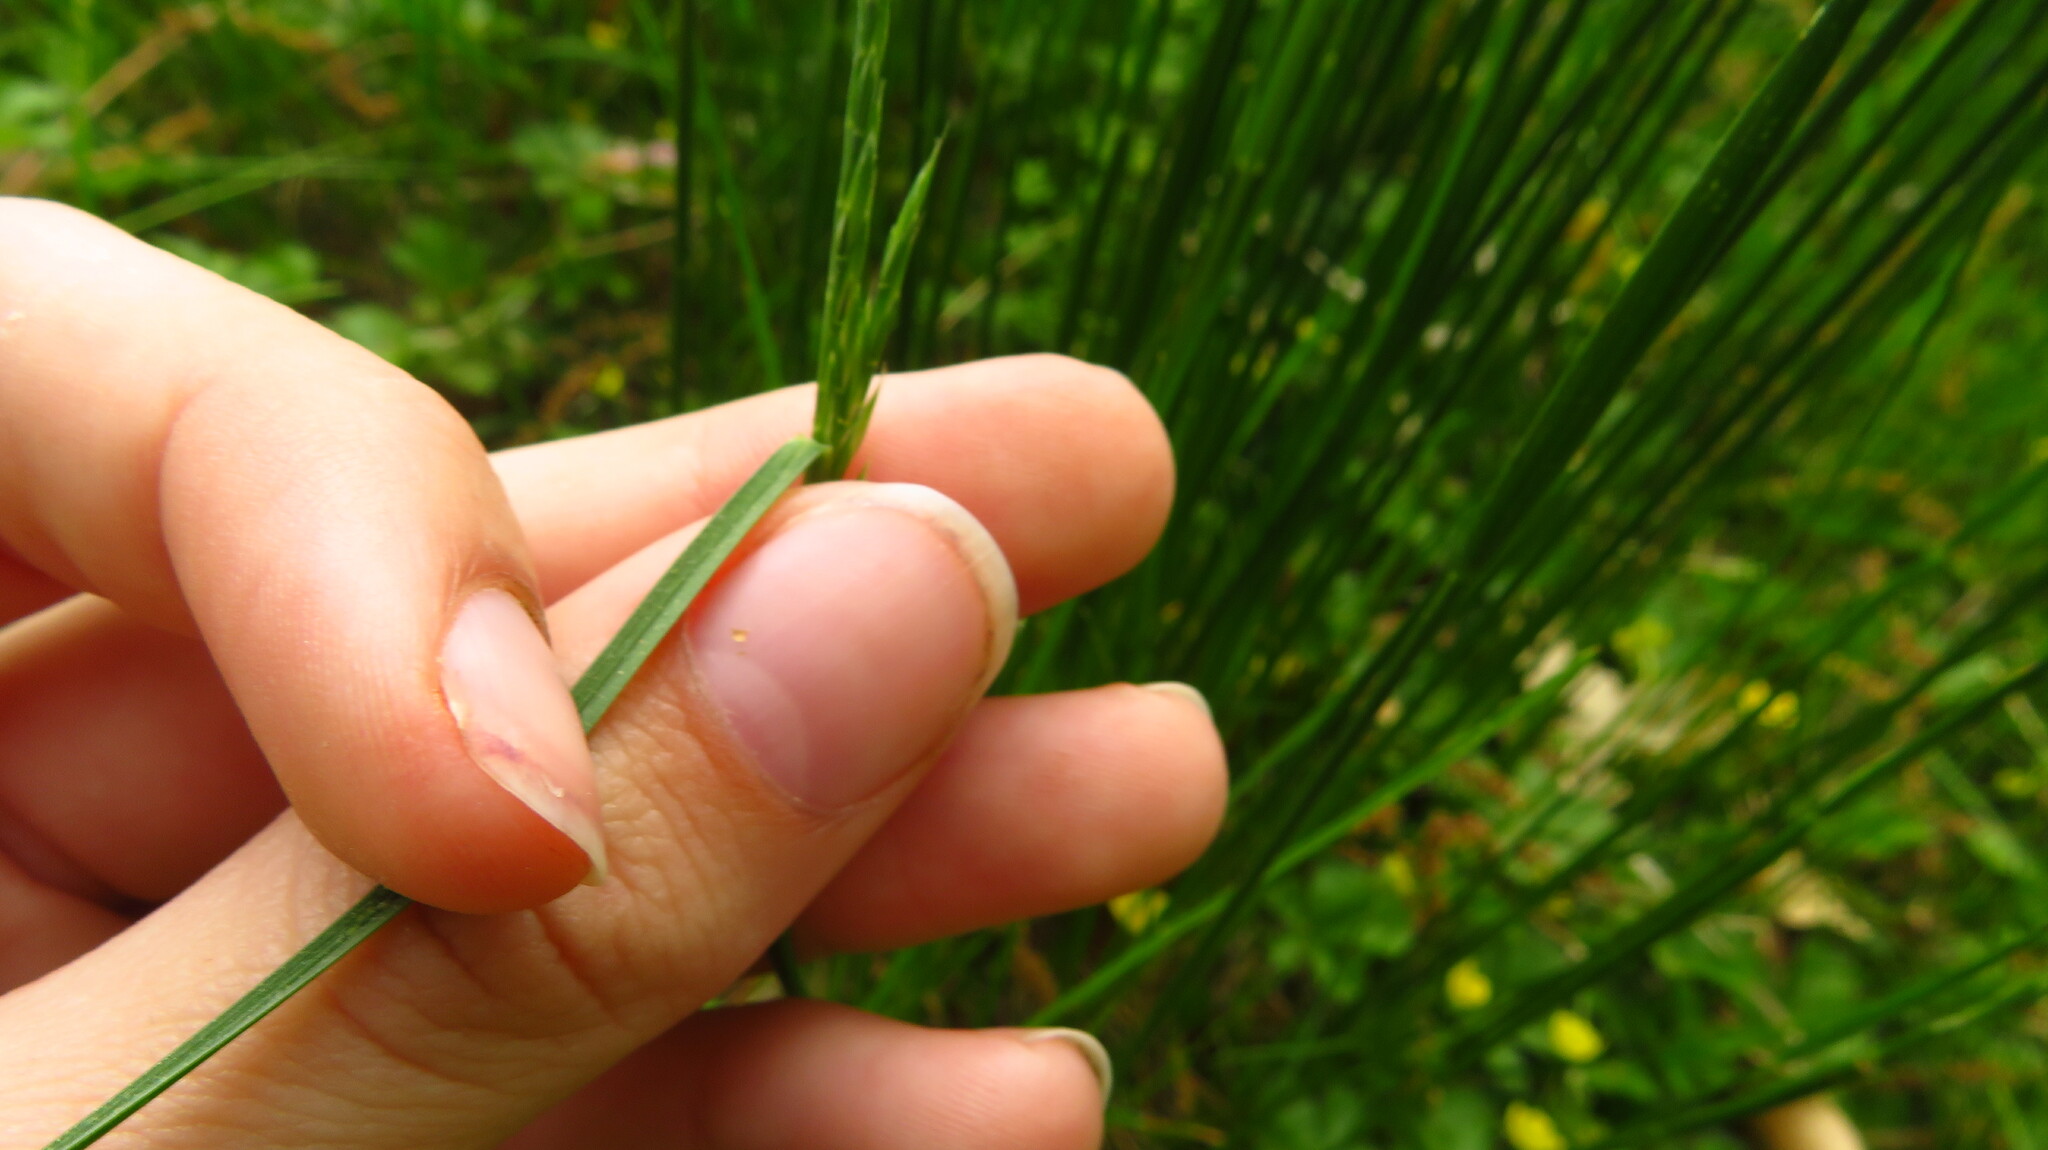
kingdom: Plantae
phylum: Tracheophyta
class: Liliopsida
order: Poales
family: Poaceae
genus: Poa
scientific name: Poa pratensis
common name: Kentucky bluegrass
